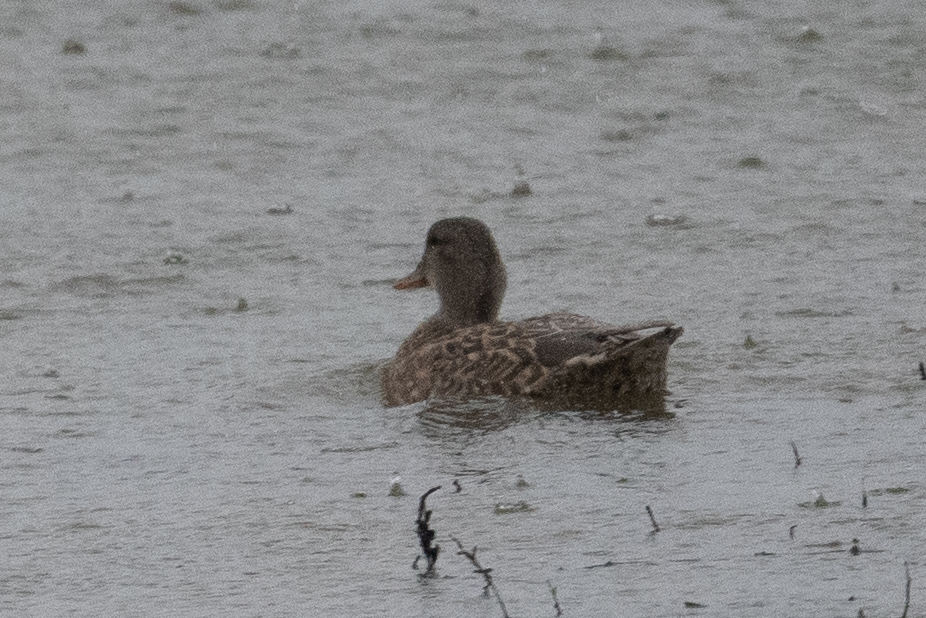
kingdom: Animalia
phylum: Chordata
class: Aves
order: Anseriformes
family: Anatidae
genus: Mareca
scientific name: Mareca strepera
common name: Gadwall
